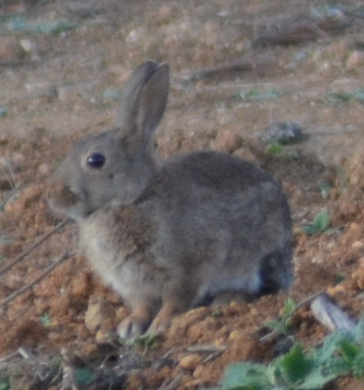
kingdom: Animalia
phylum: Chordata
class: Mammalia
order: Lagomorpha
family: Leporidae
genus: Oryctolagus
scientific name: Oryctolagus cuniculus
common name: European rabbit
